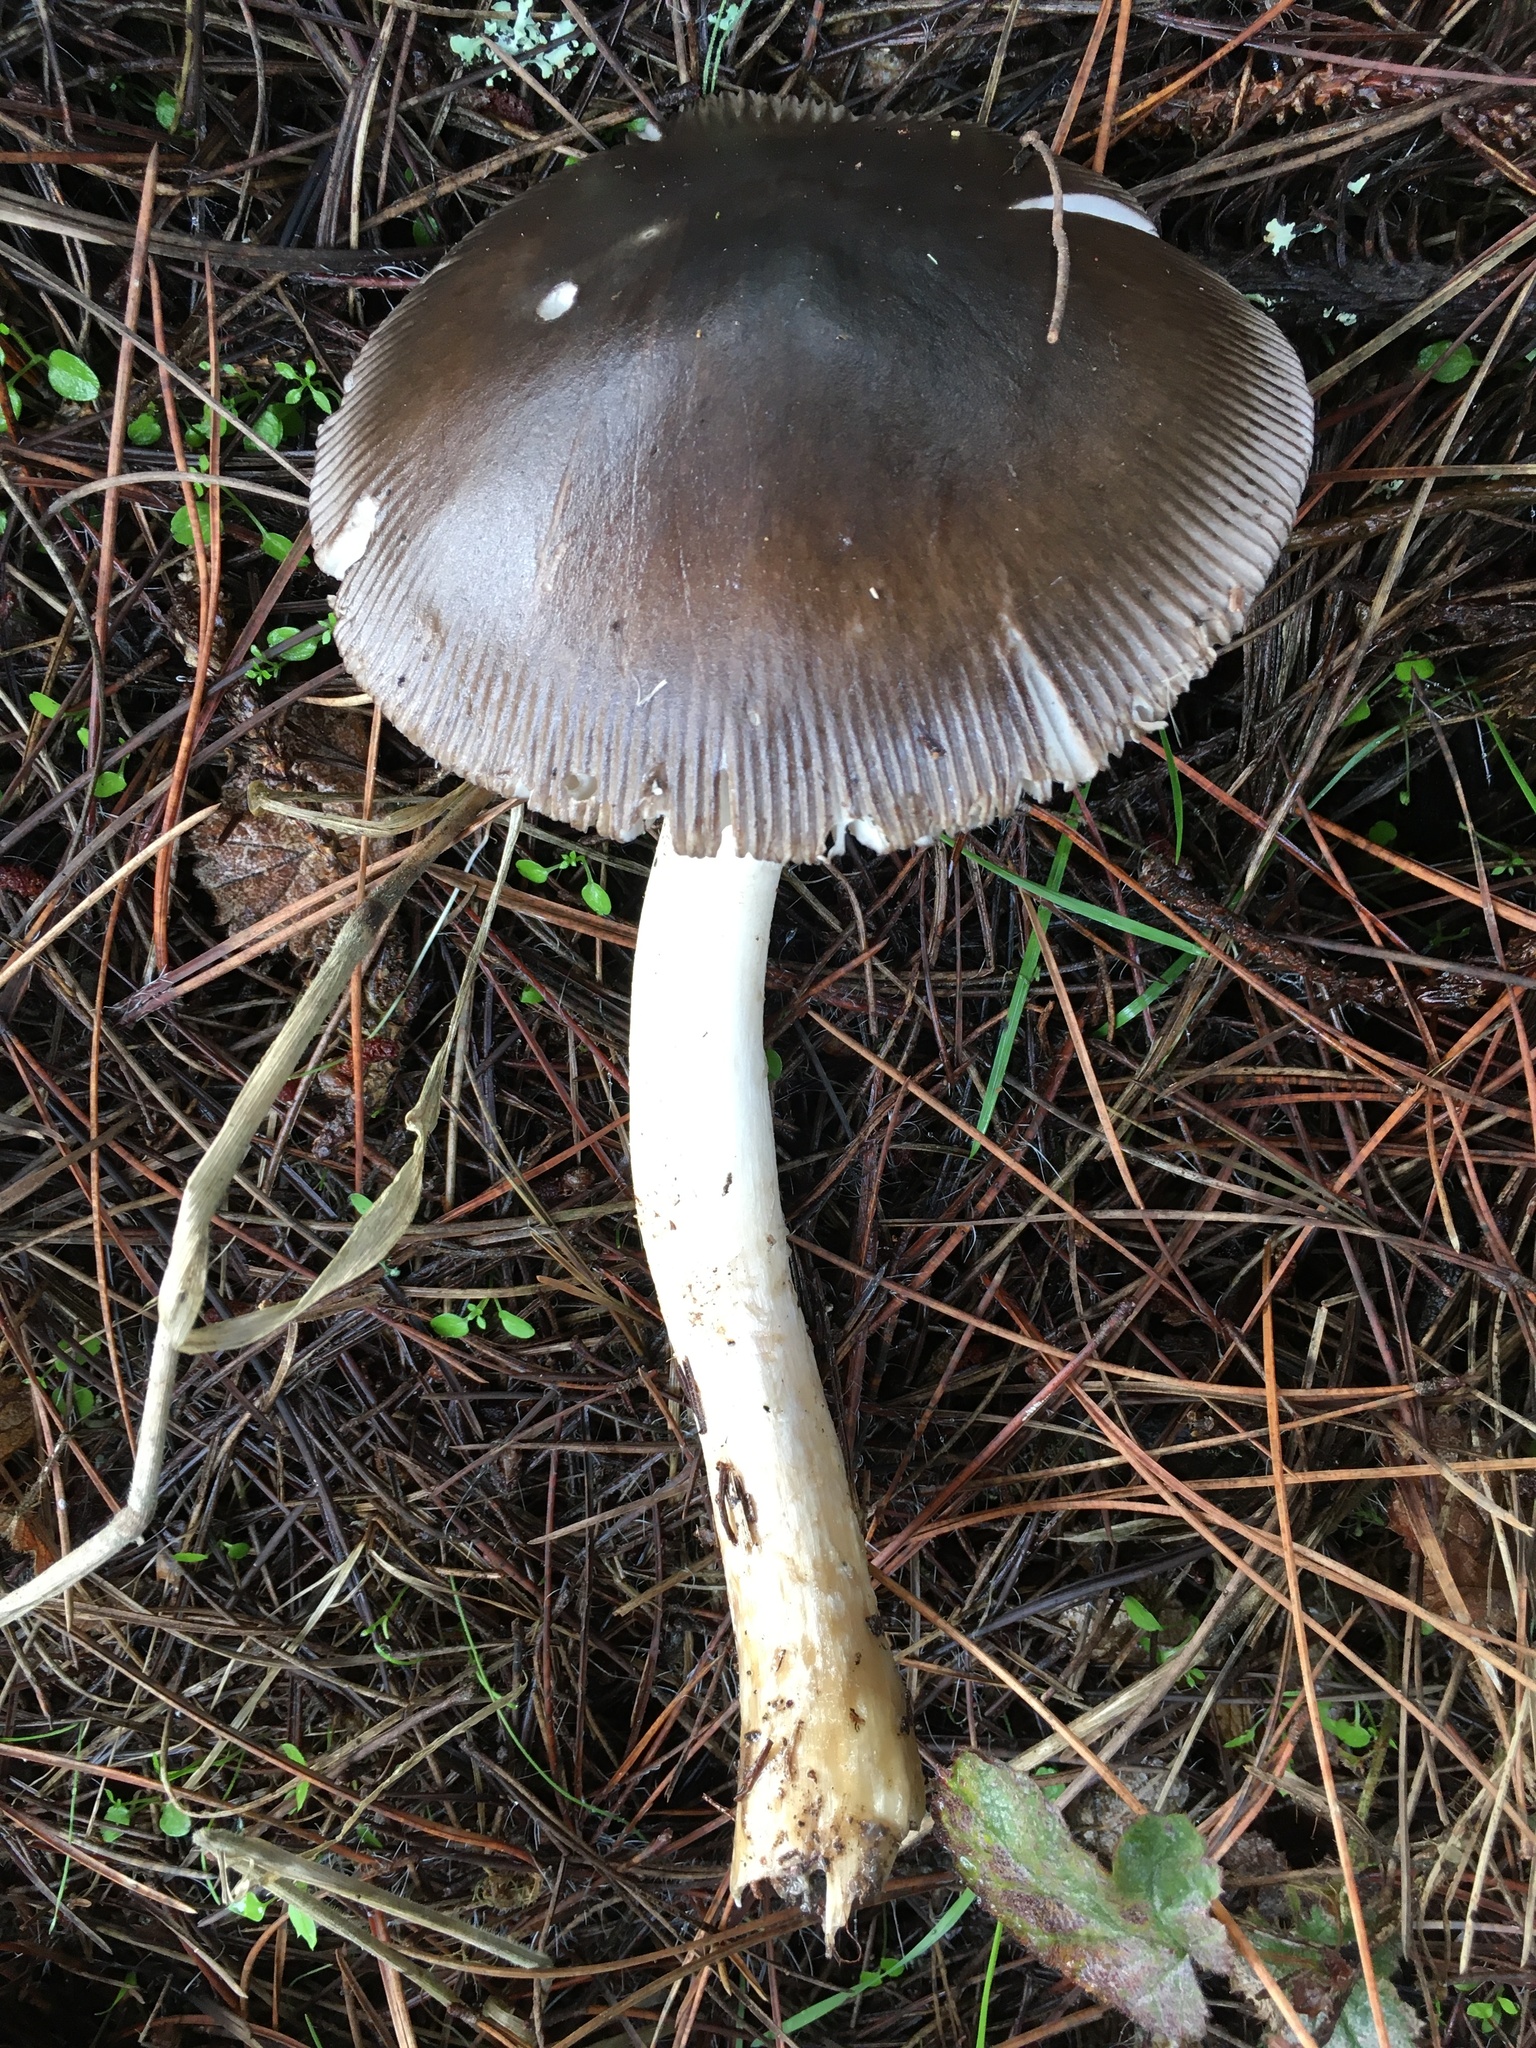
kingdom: Fungi
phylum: Basidiomycota
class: Agaricomycetes
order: Agaricales
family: Amanitaceae
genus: Amanita
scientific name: Amanita pachycolea
